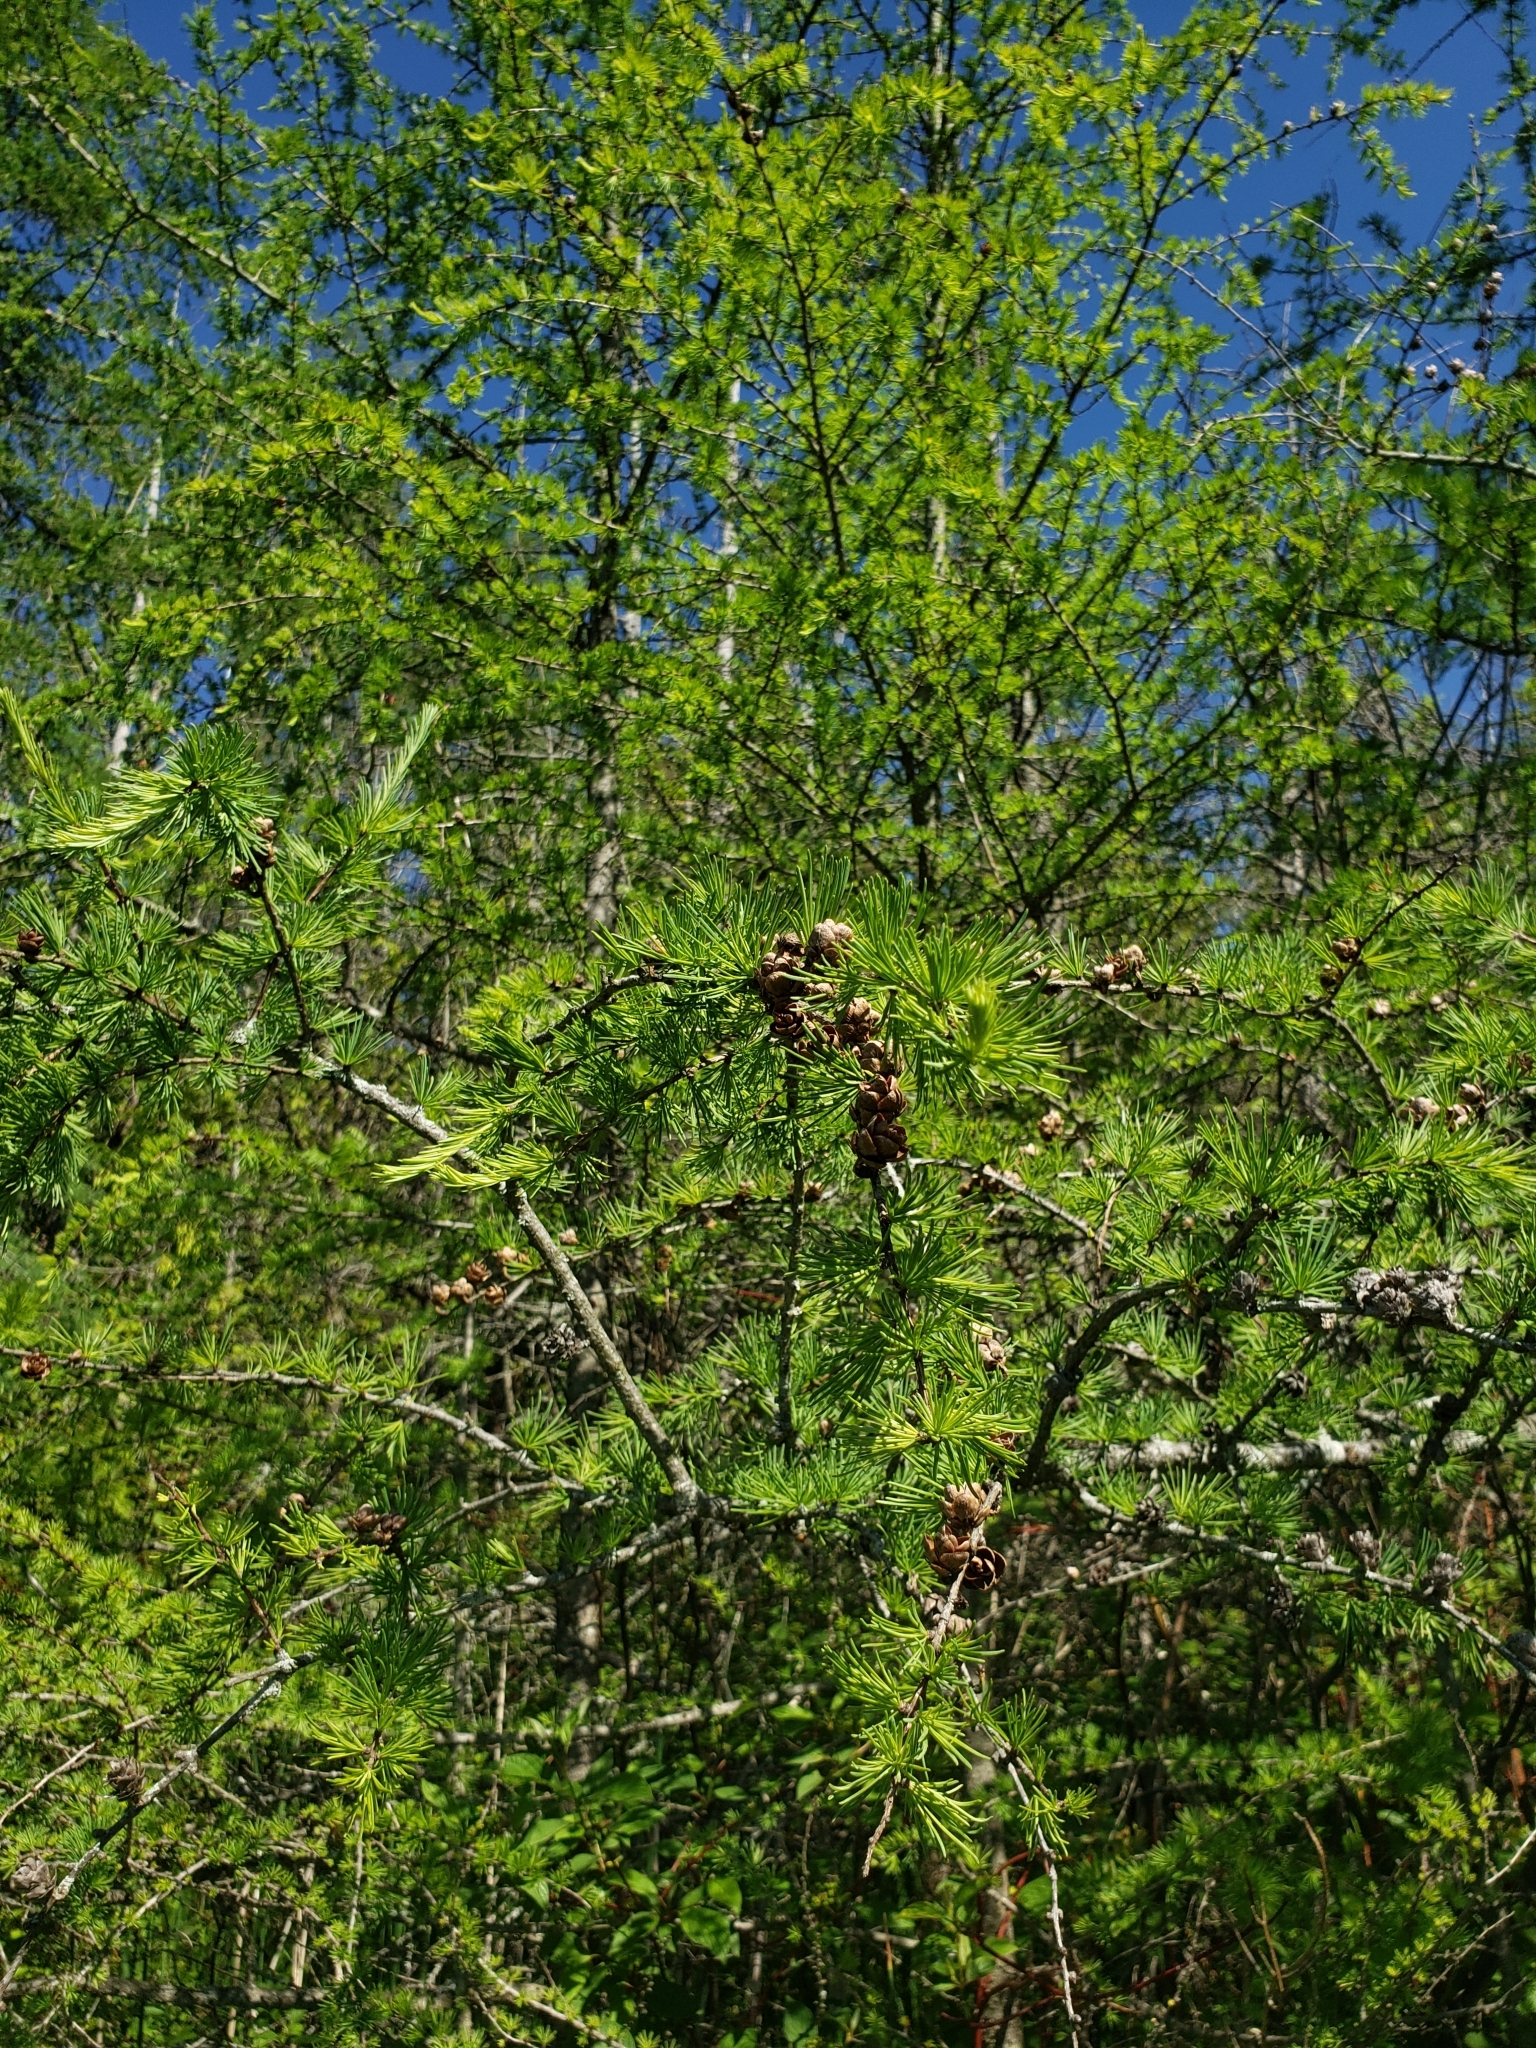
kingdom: Plantae
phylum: Tracheophyta
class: Pinopsida
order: Pinales
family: Pinaceae
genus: Larix
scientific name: Larix laricina
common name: American larch
